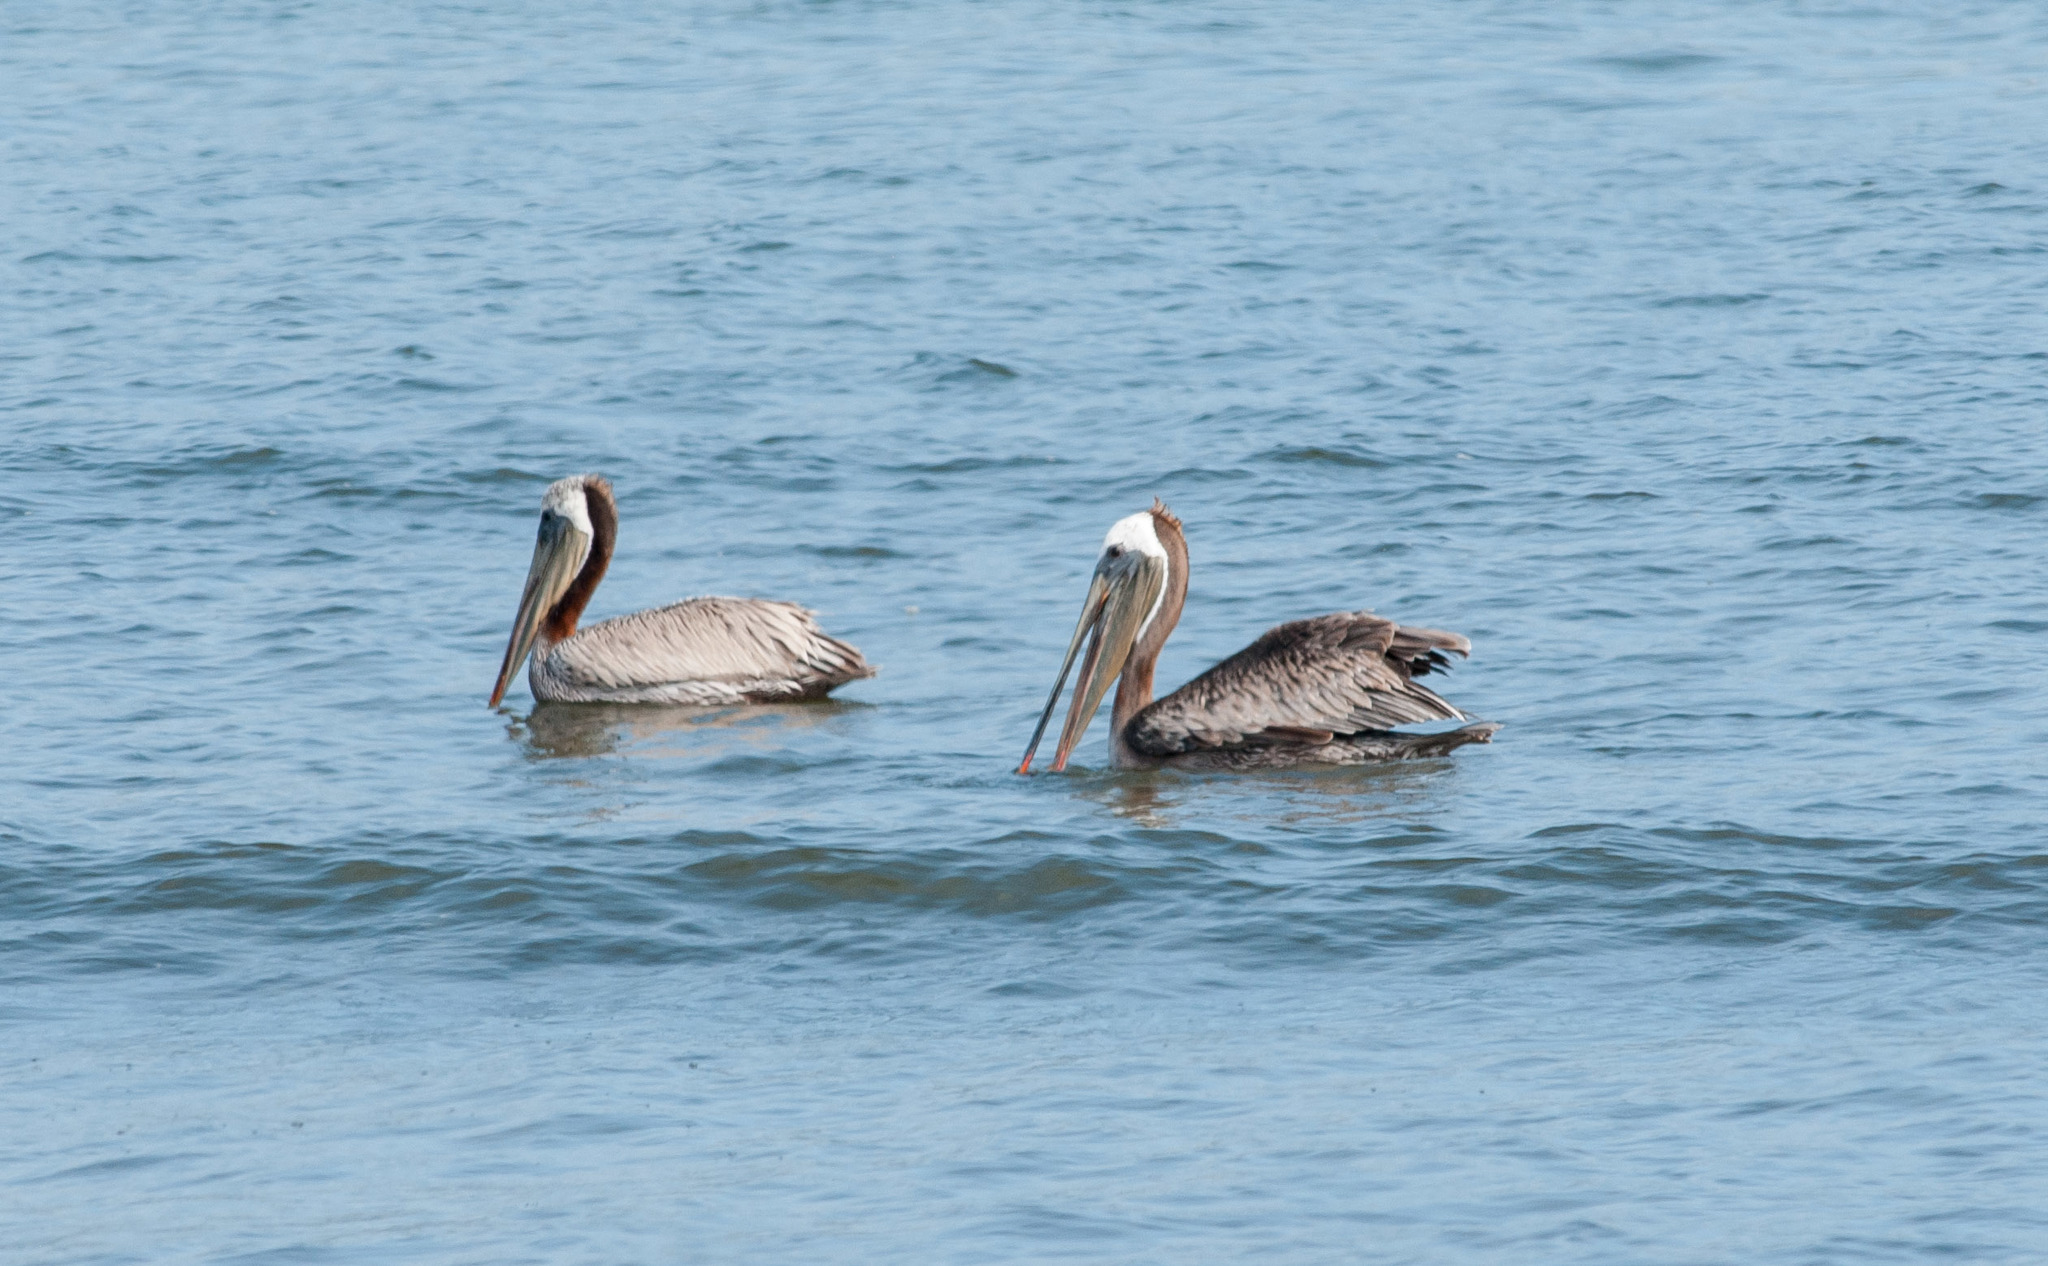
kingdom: Animalia
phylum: Chordata
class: Aves
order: Pelecaniformes
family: Pelecanidae
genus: Pelecanus
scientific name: Pelecanus occidentalis
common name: Brown pelican
